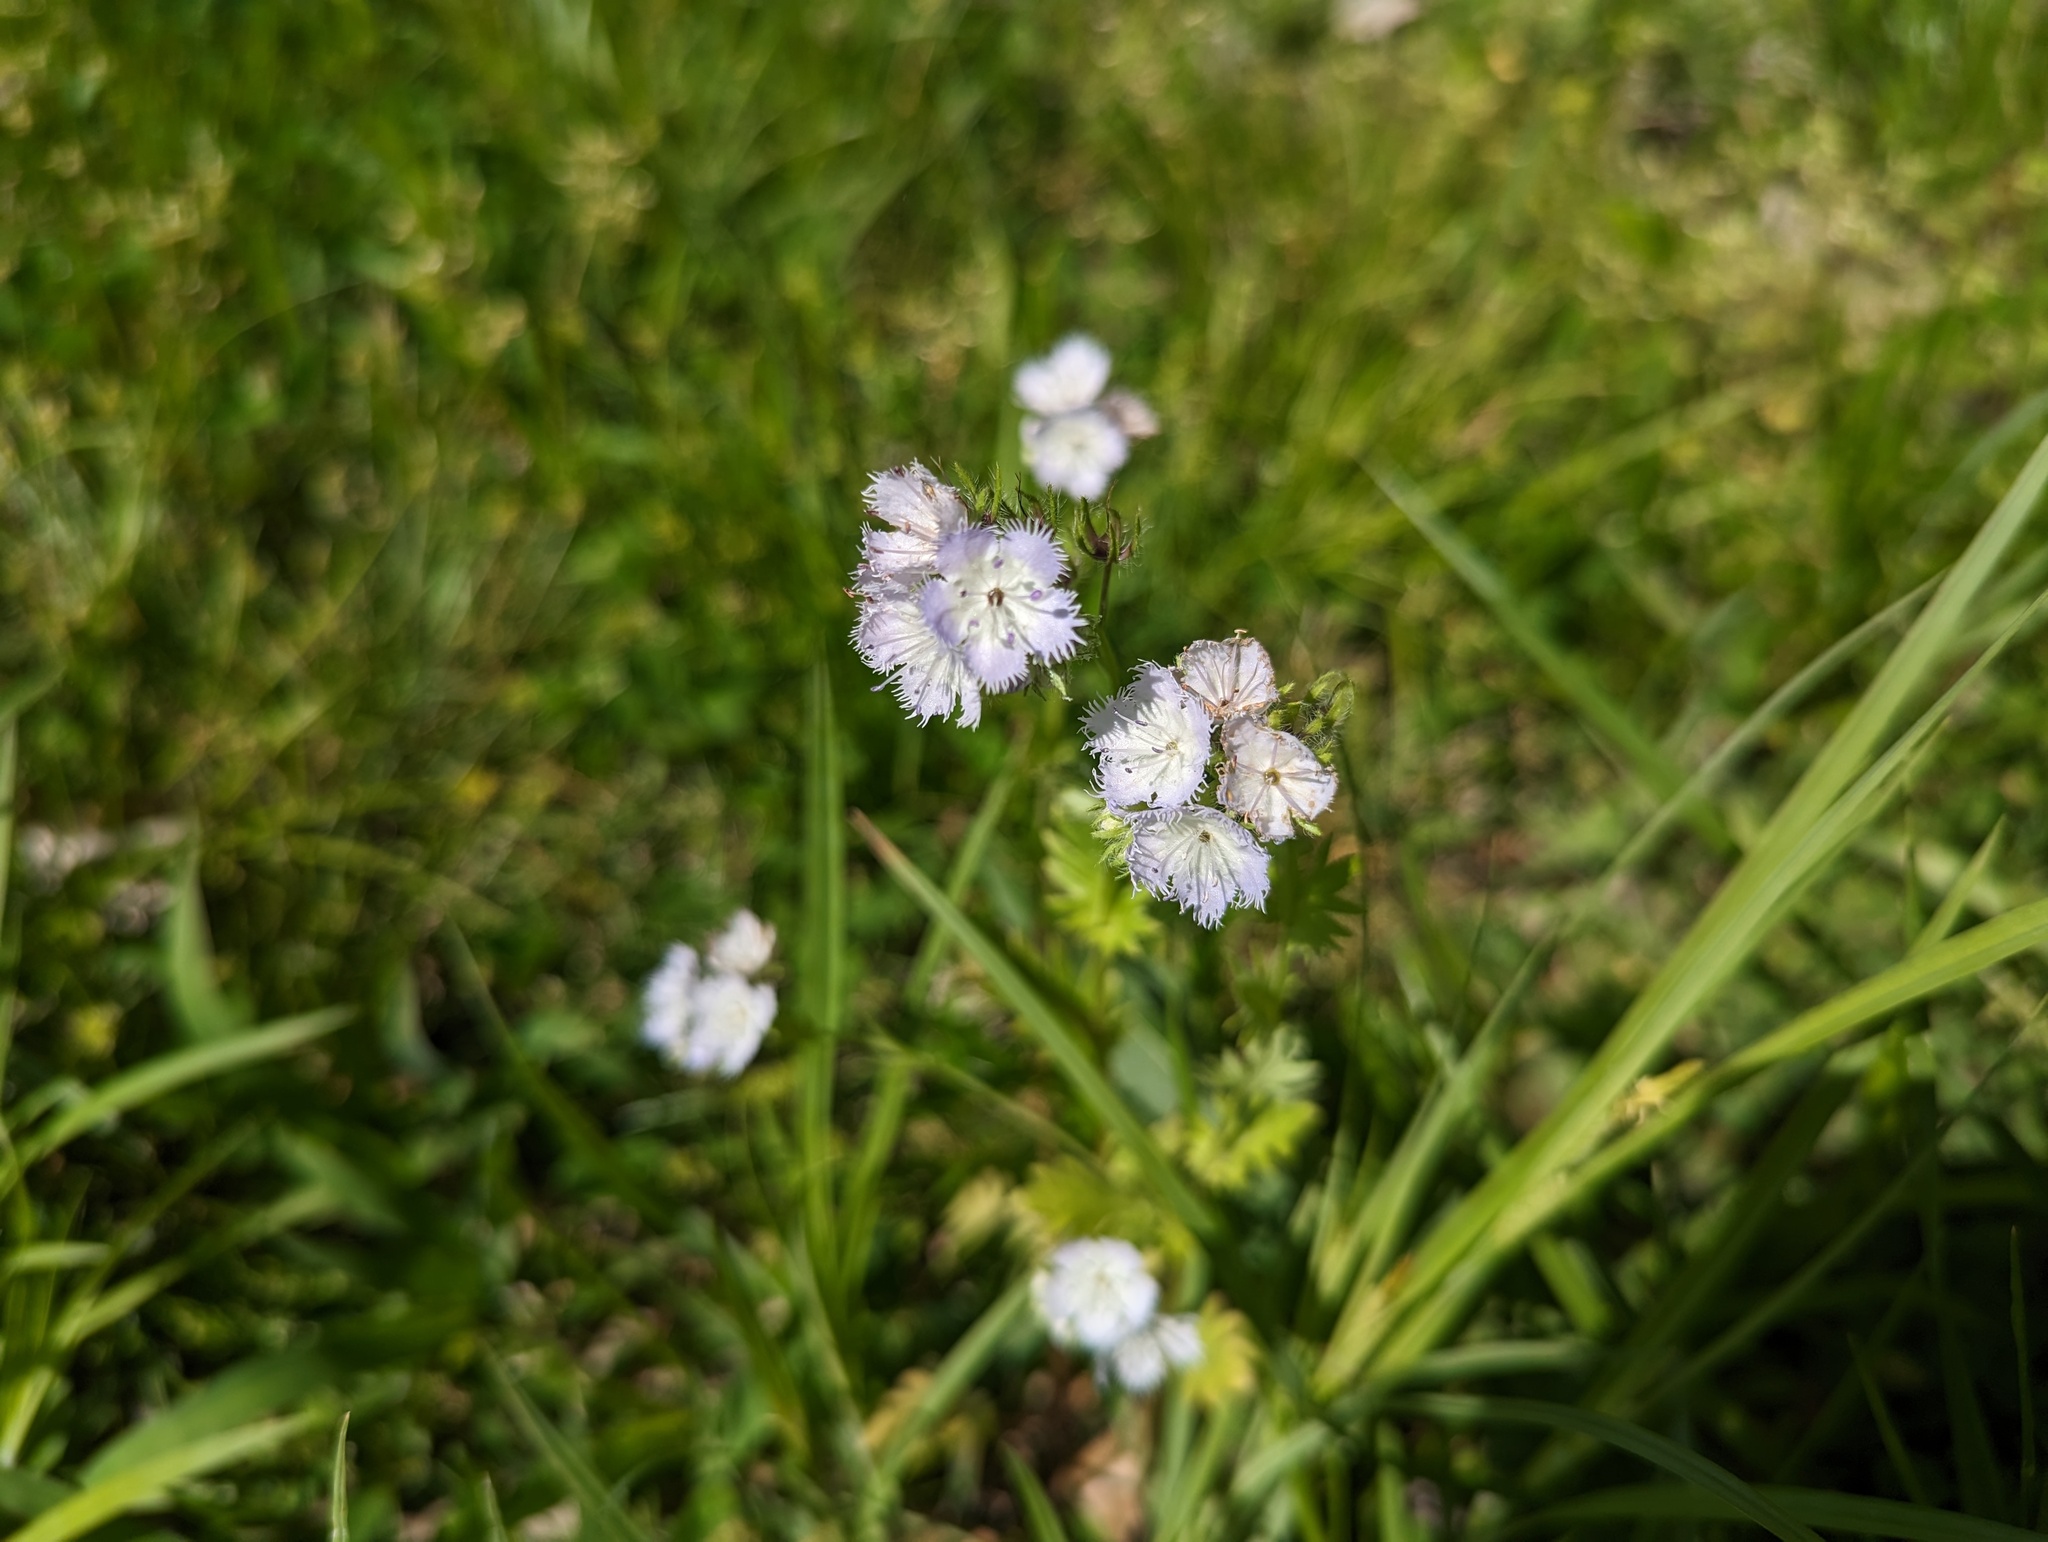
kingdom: Plantae
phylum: Tracheophyta
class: Magnoliopsida
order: Boraginales
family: Hydrophyllaceae
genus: Phacelia
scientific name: Phacelia purshii
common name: Miami-mist
